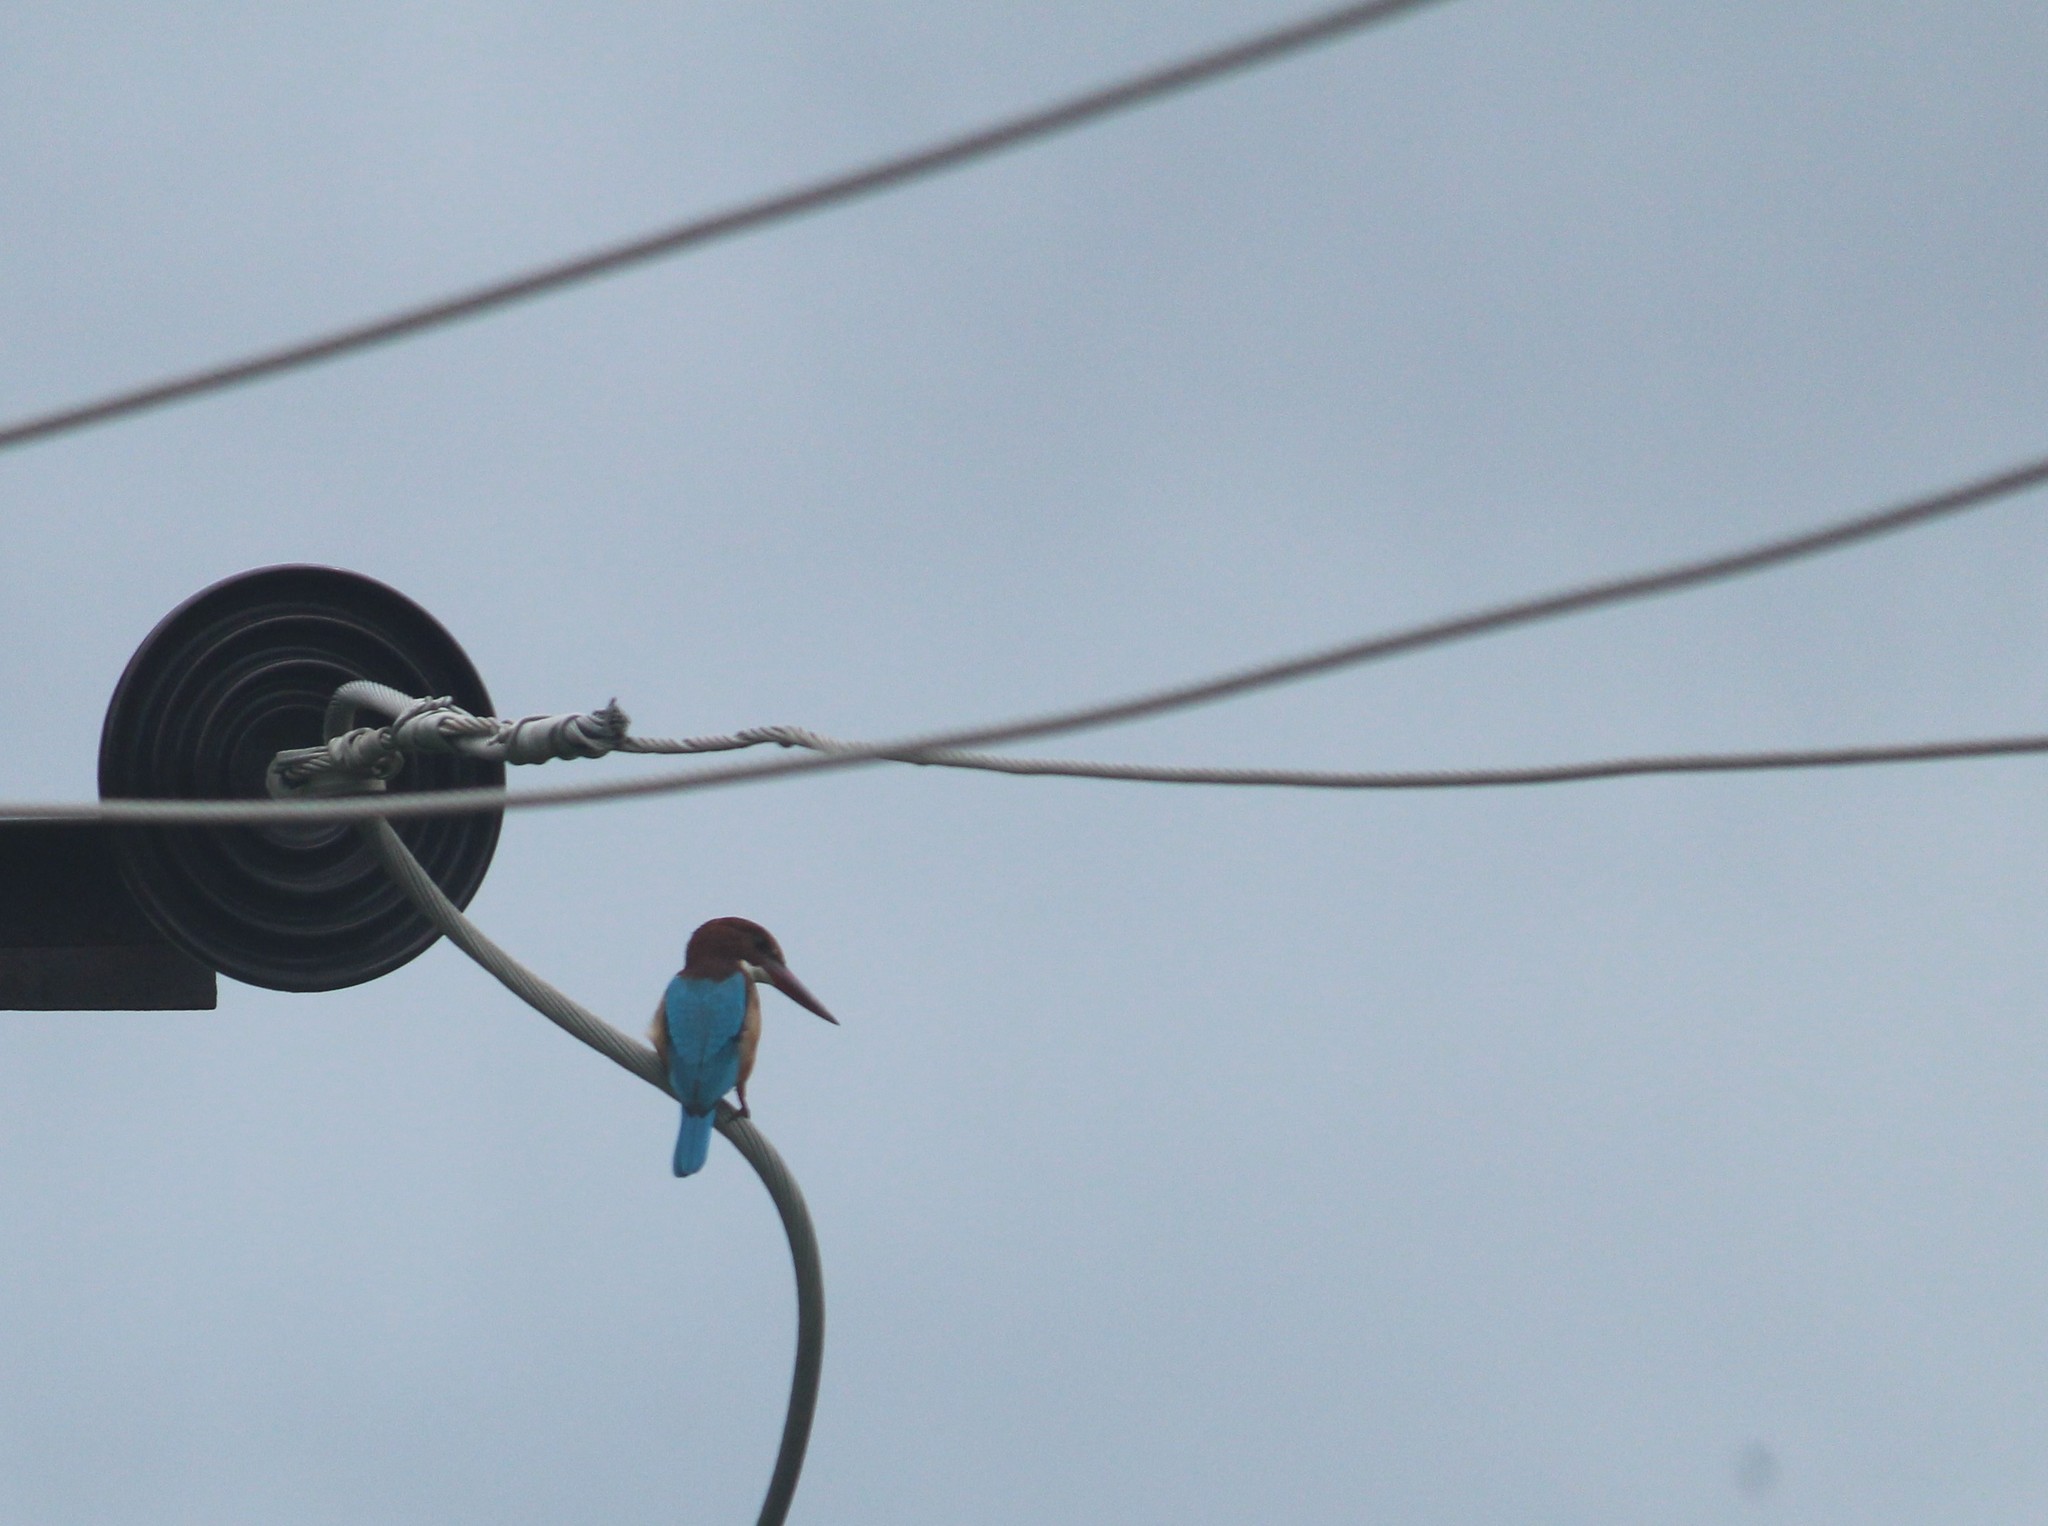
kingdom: Animalia
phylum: Chordata
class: Aves
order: Coraciiformes
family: Alcedinidae
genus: Halcyon
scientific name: Halcyon smyrnensis
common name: White-throated kingfisher
